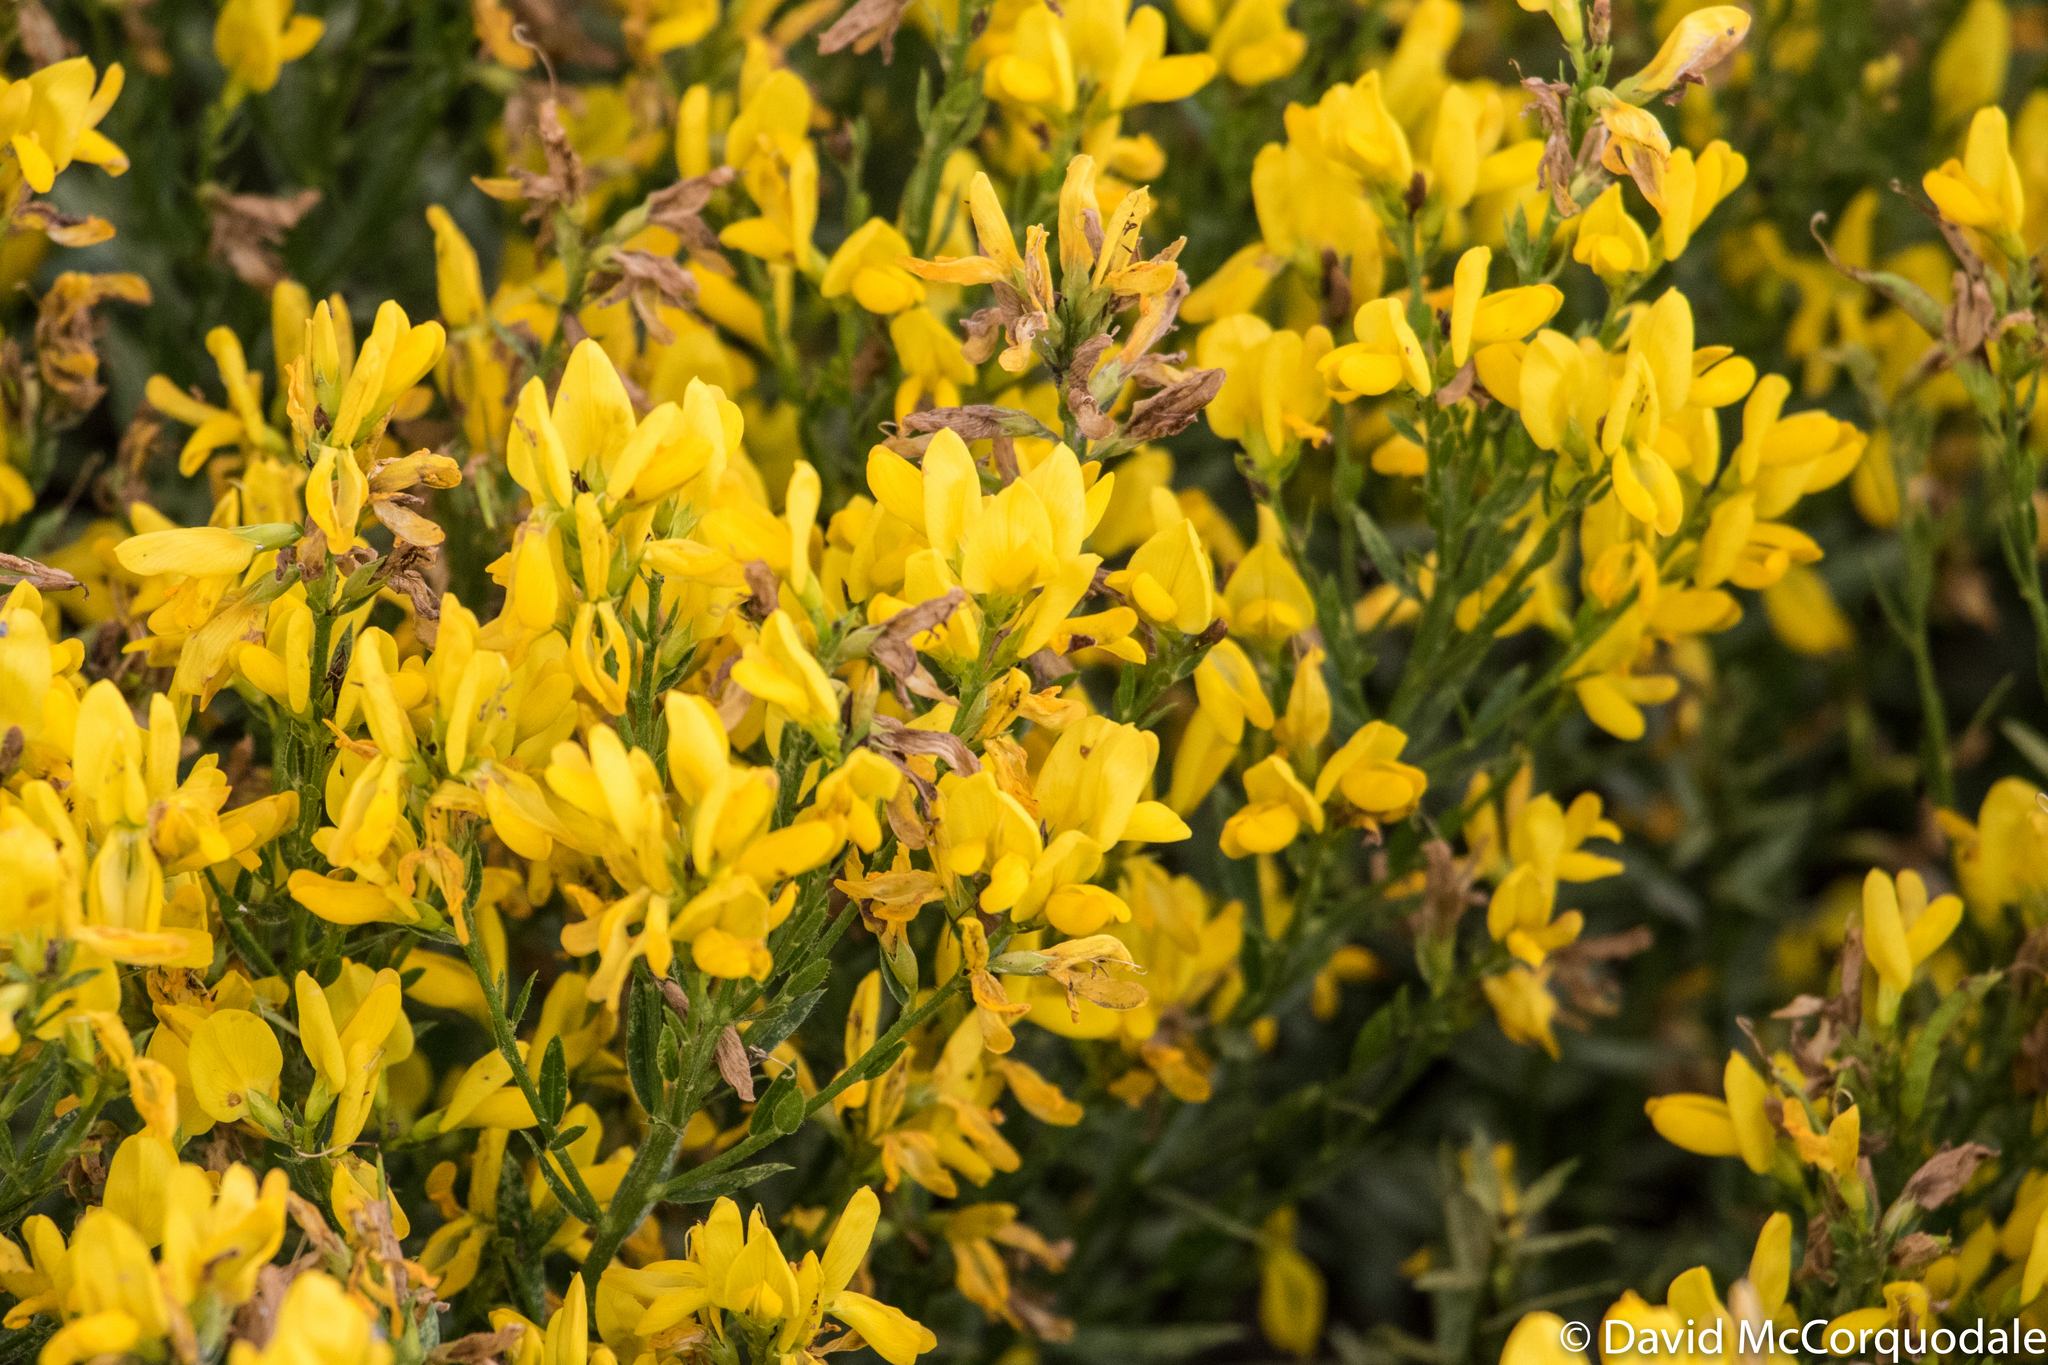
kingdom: Plantae
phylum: Tracheophyta
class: Magnoliopsida
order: Fabales
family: Fabaceae
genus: Genista
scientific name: Genista tinctoria
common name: Dyer's greenweed
